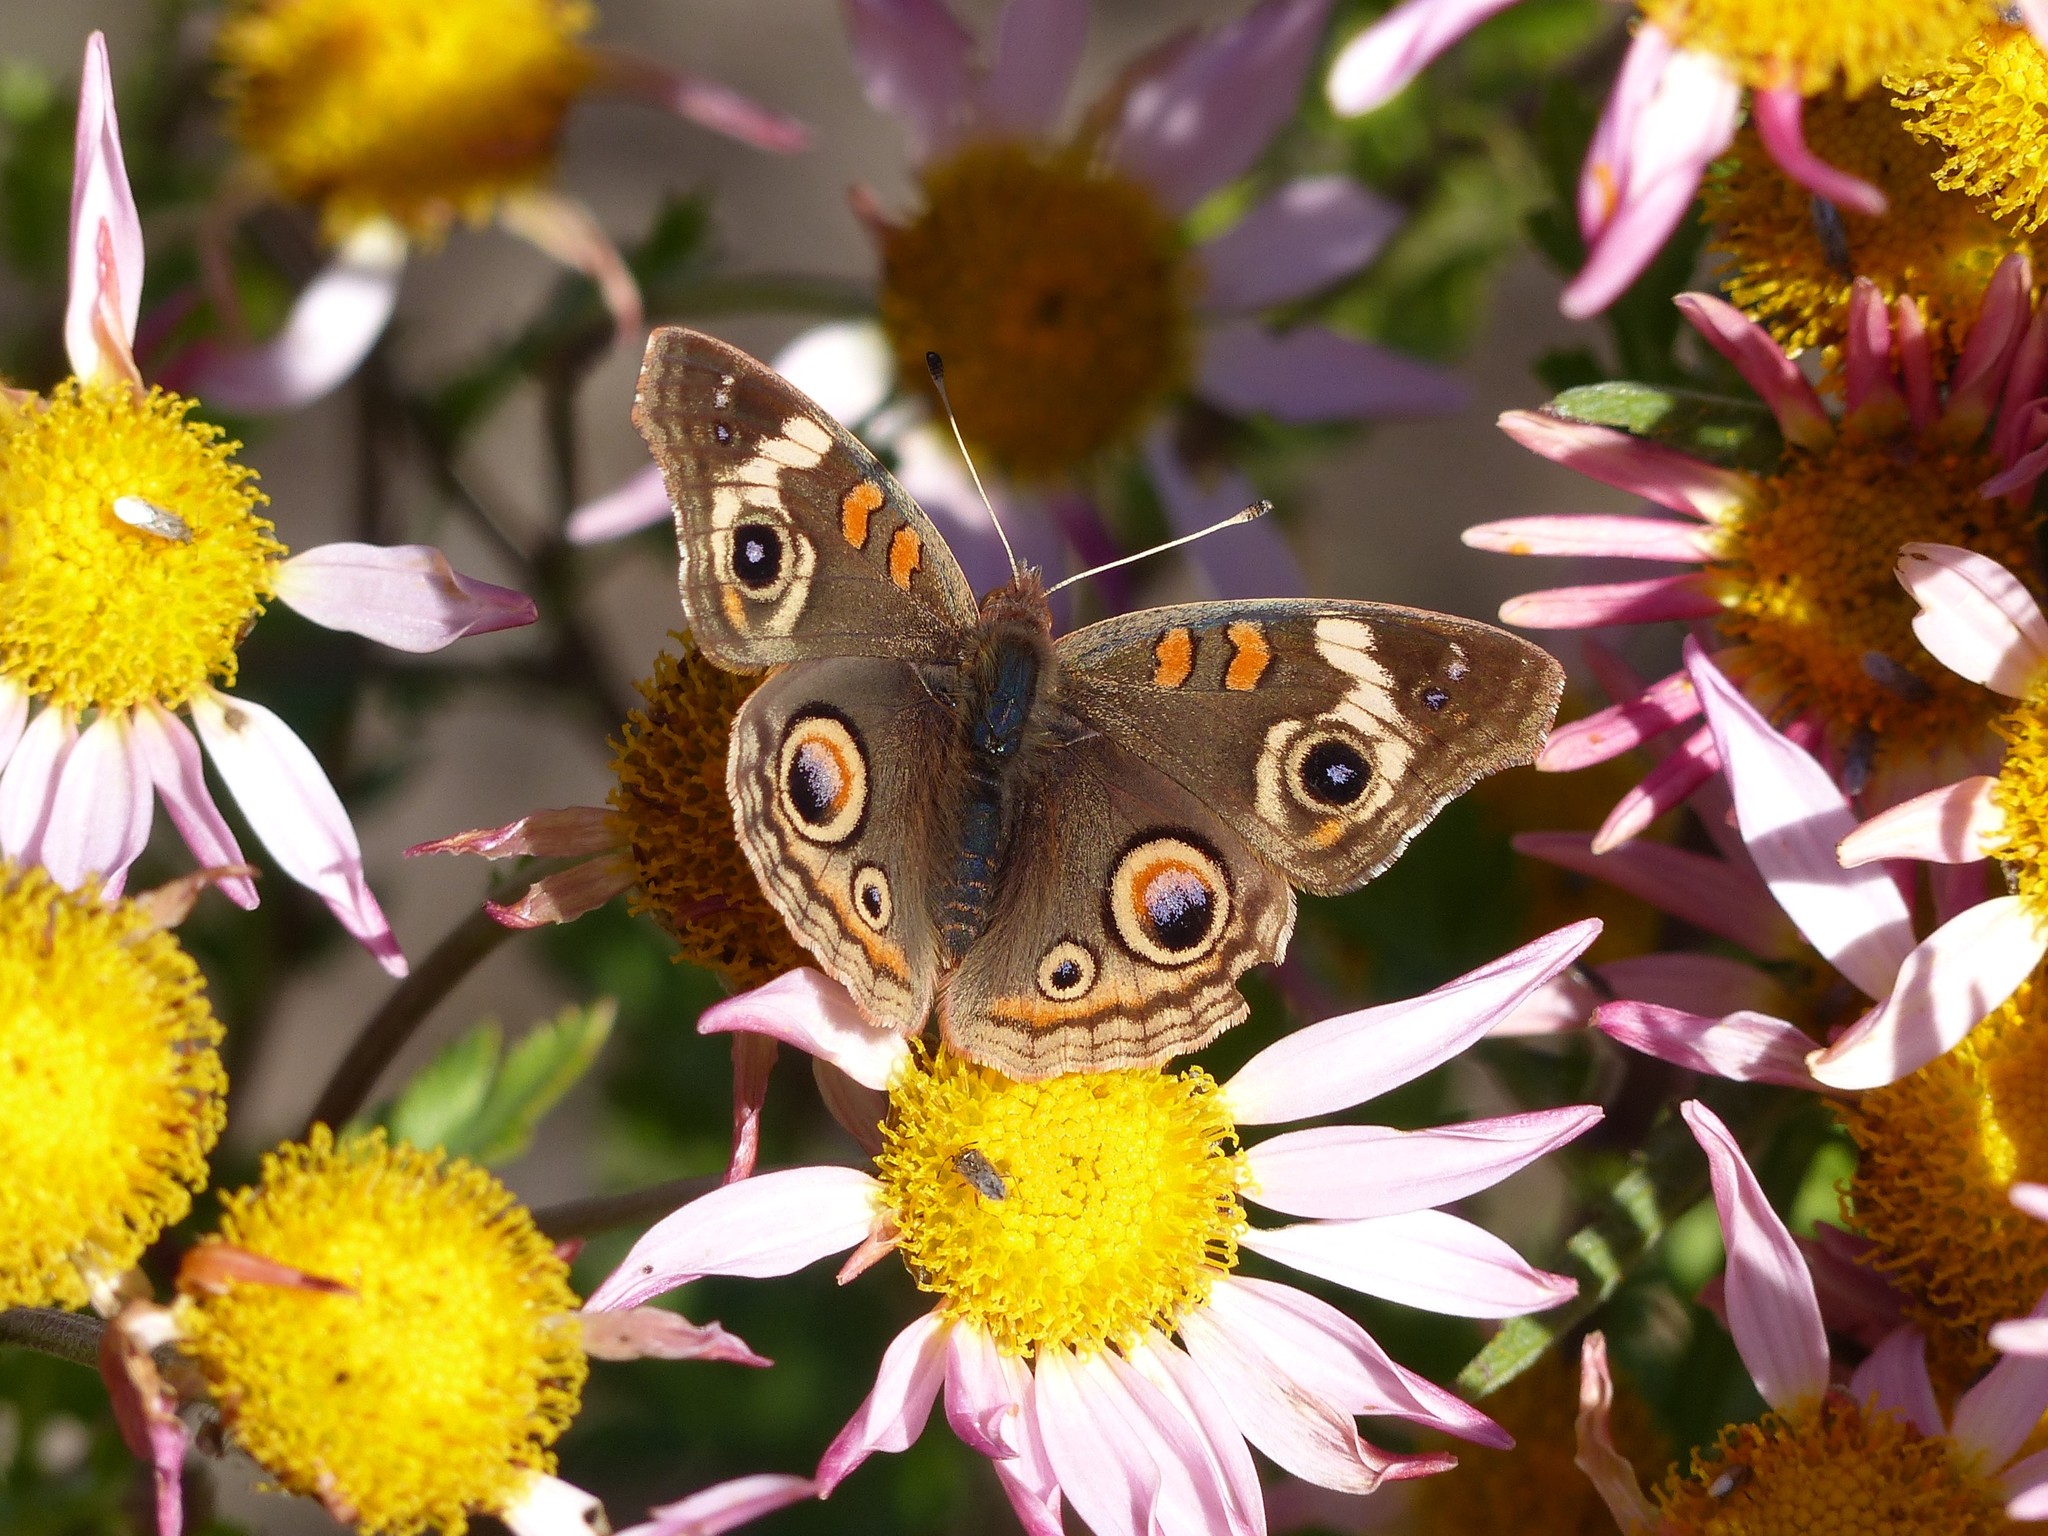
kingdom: Animalia
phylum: Arthropoda
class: Insecta
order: Lepidoptera
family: Nymphalidae
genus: Junonia
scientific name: Junonia grisea
